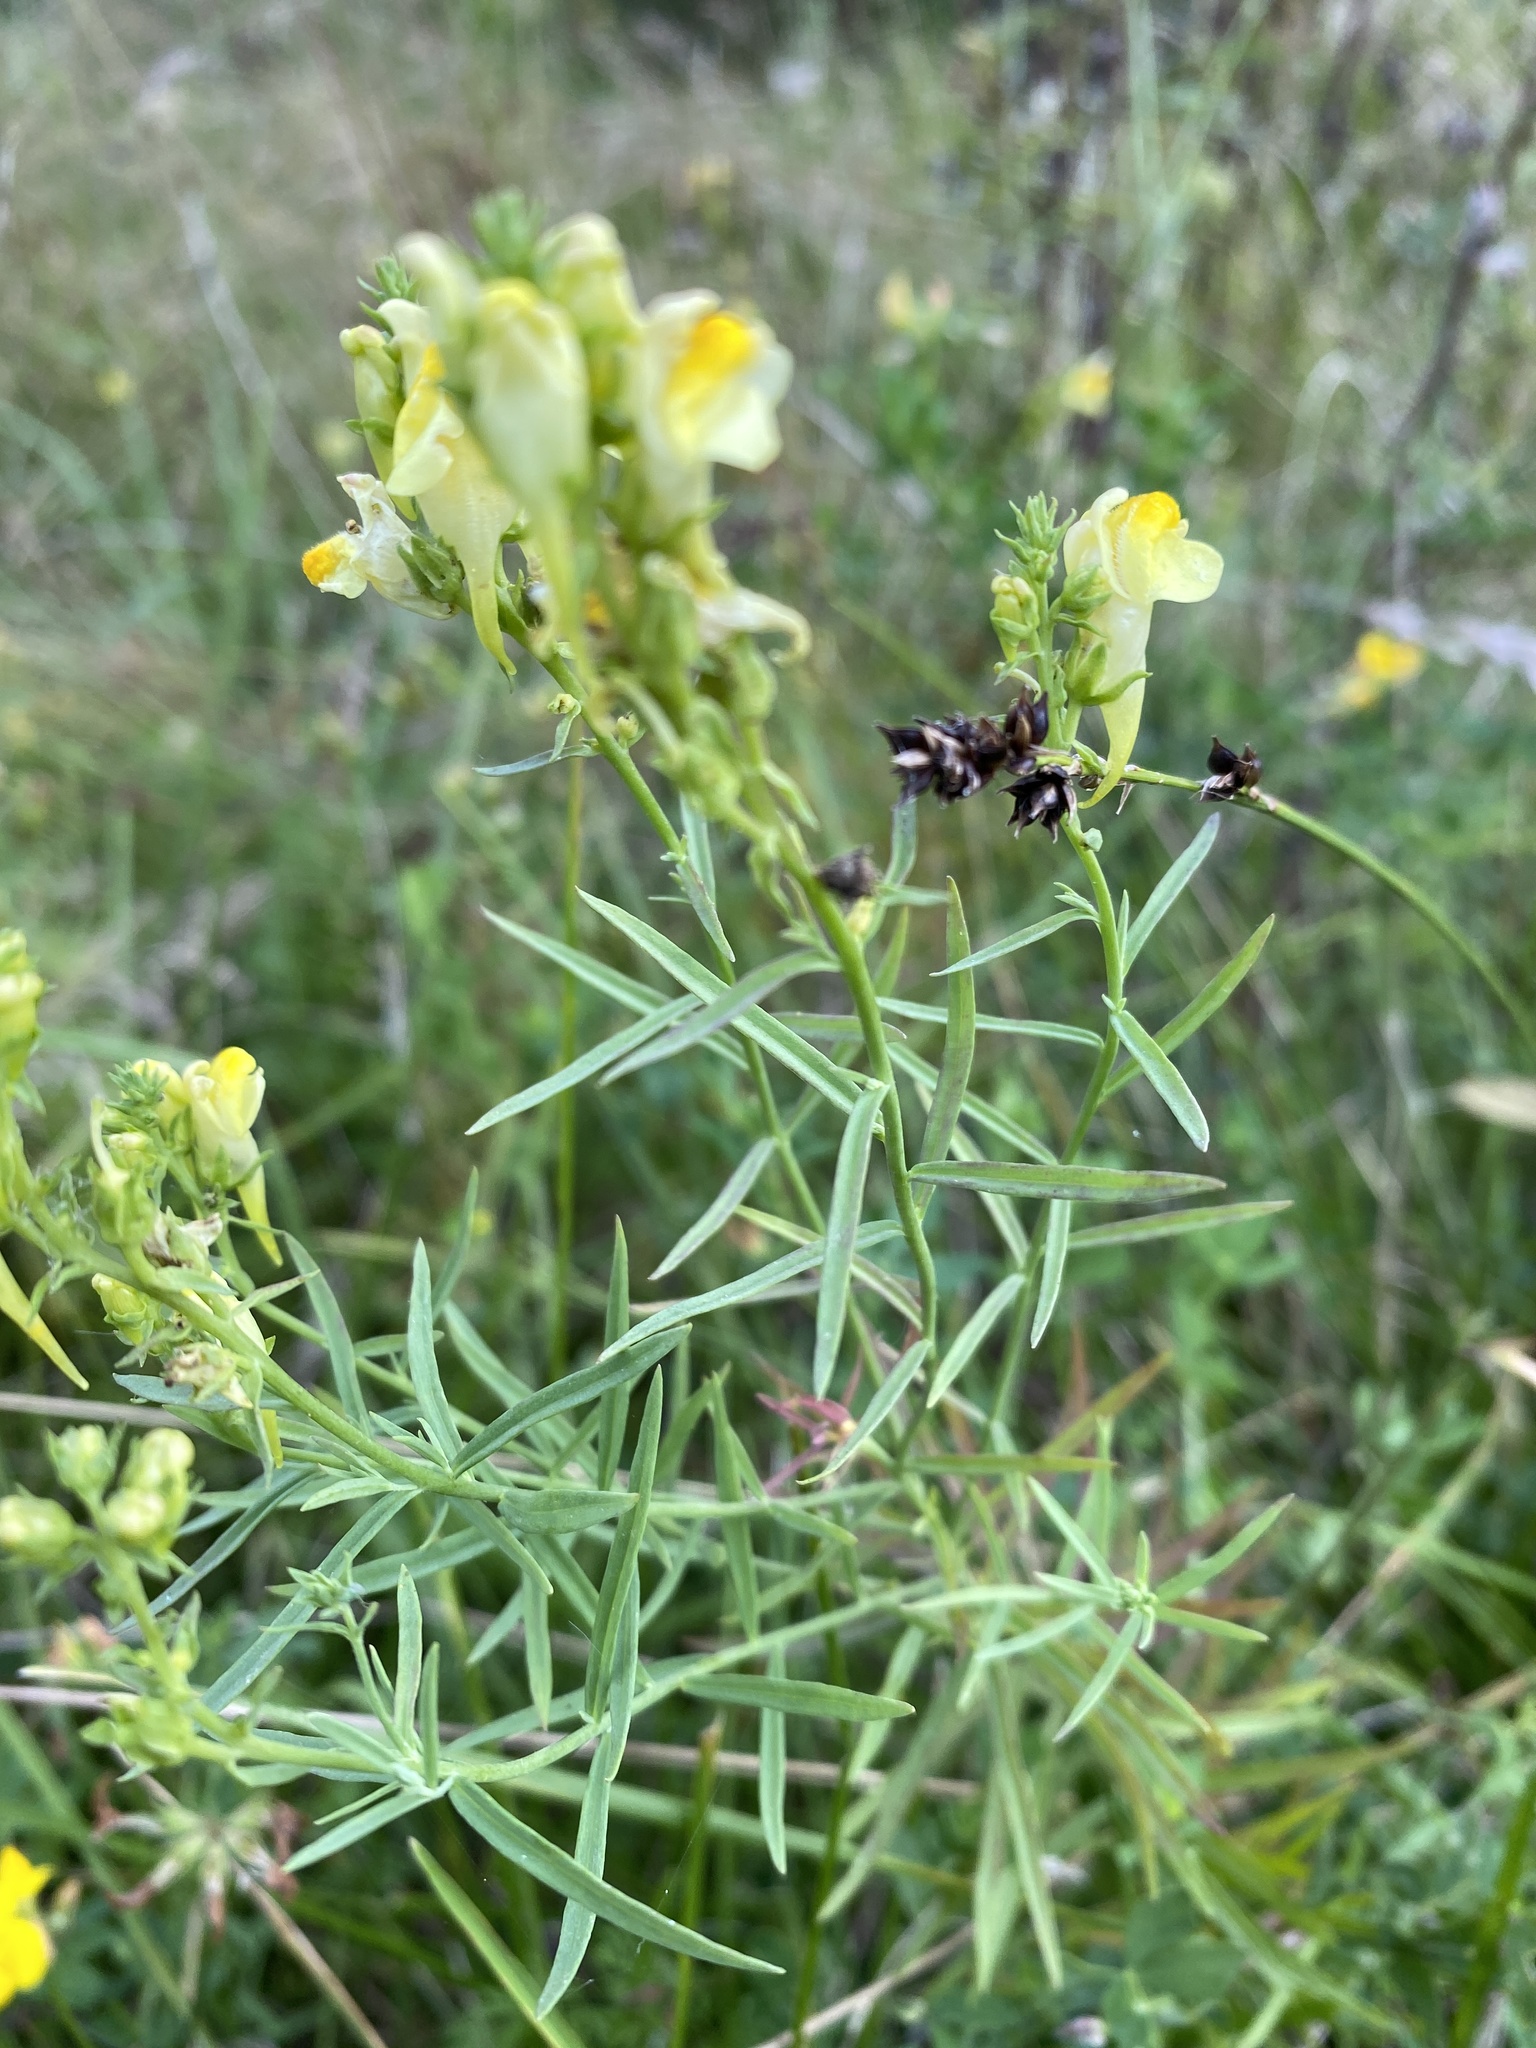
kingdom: Plantae
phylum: Tracheophyta
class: Magnoliopsida
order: Lamiales
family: Plantaginaceae
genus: Linaria
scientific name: Linaria vulgaris
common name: Butter and eggs
